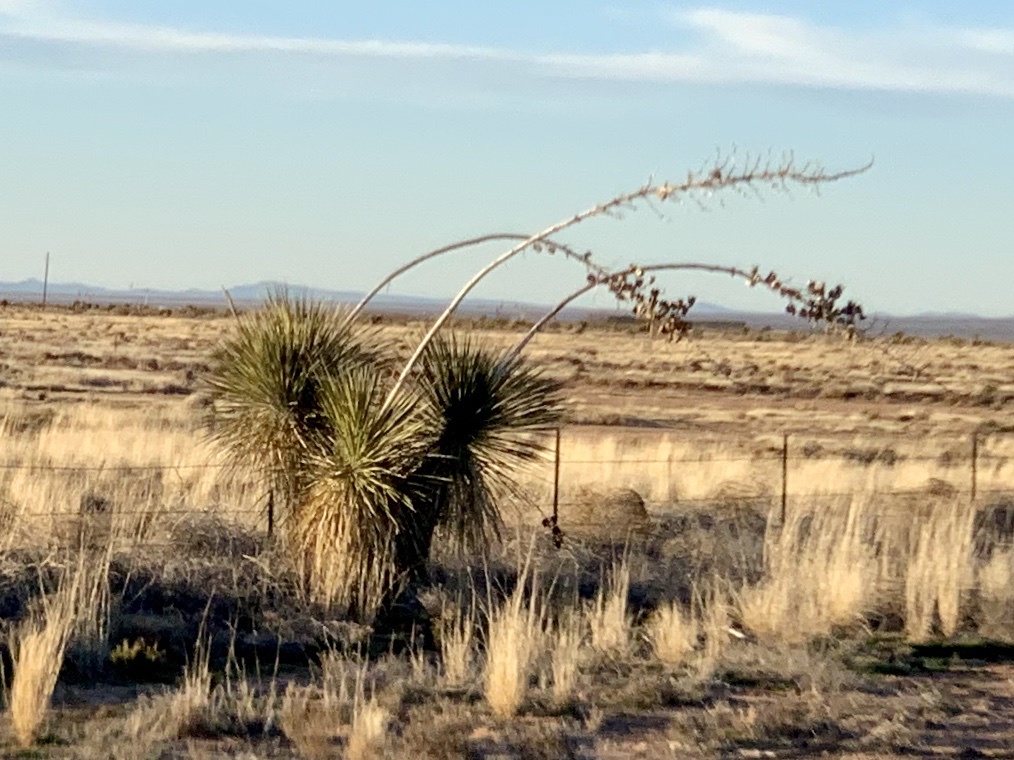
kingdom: Plantae
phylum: Tracheophyta
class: Liliopsida
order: Asparagales
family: Asparagaceae
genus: Yucca
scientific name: Yucca elata
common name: Palmella
